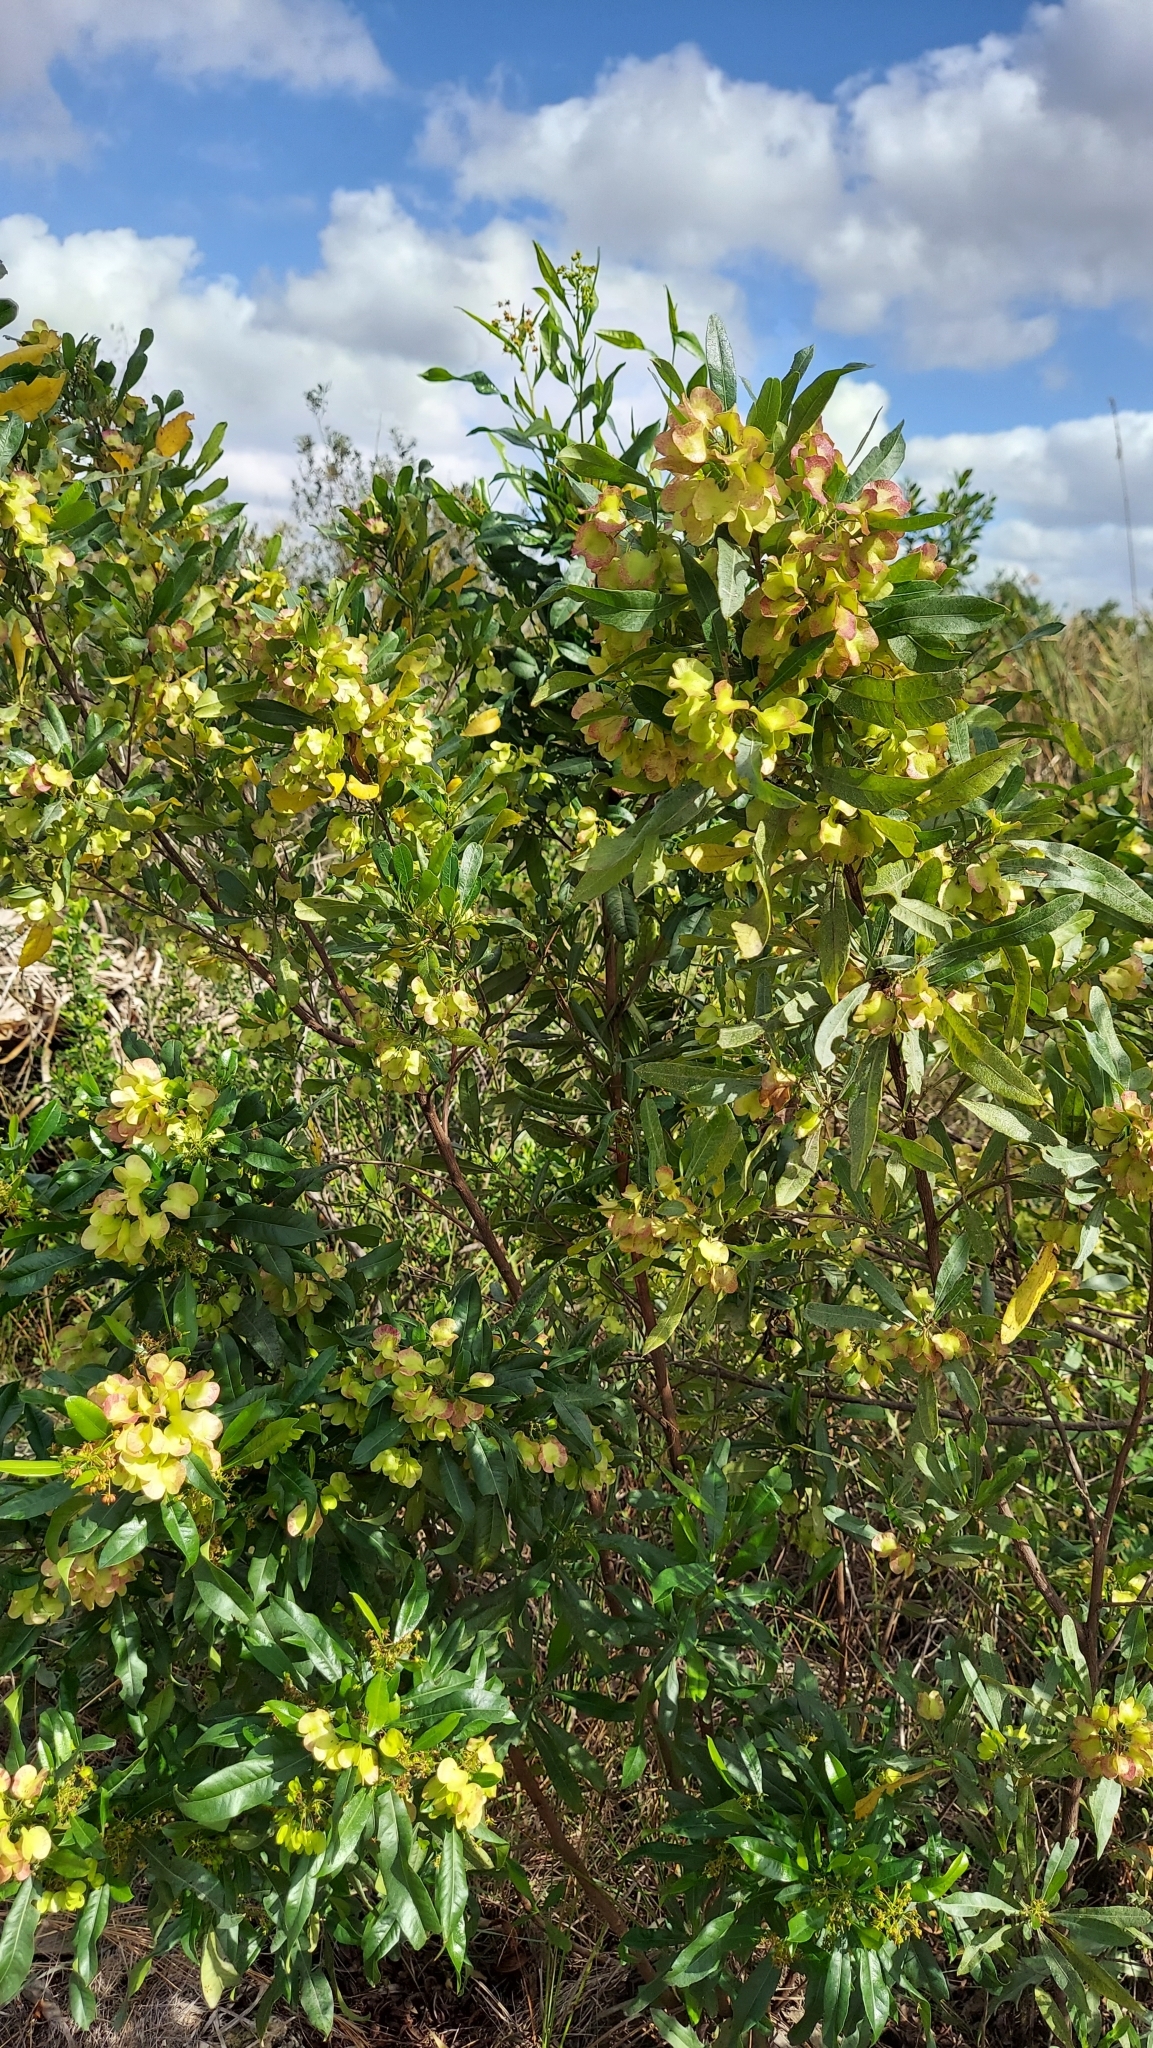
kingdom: Plantae
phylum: Tracheophyta
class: Magnoliopsida
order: Sapindales
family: Sapindaceae
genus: Dodonaea
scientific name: Dodonaea viscosa
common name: Hopbush
